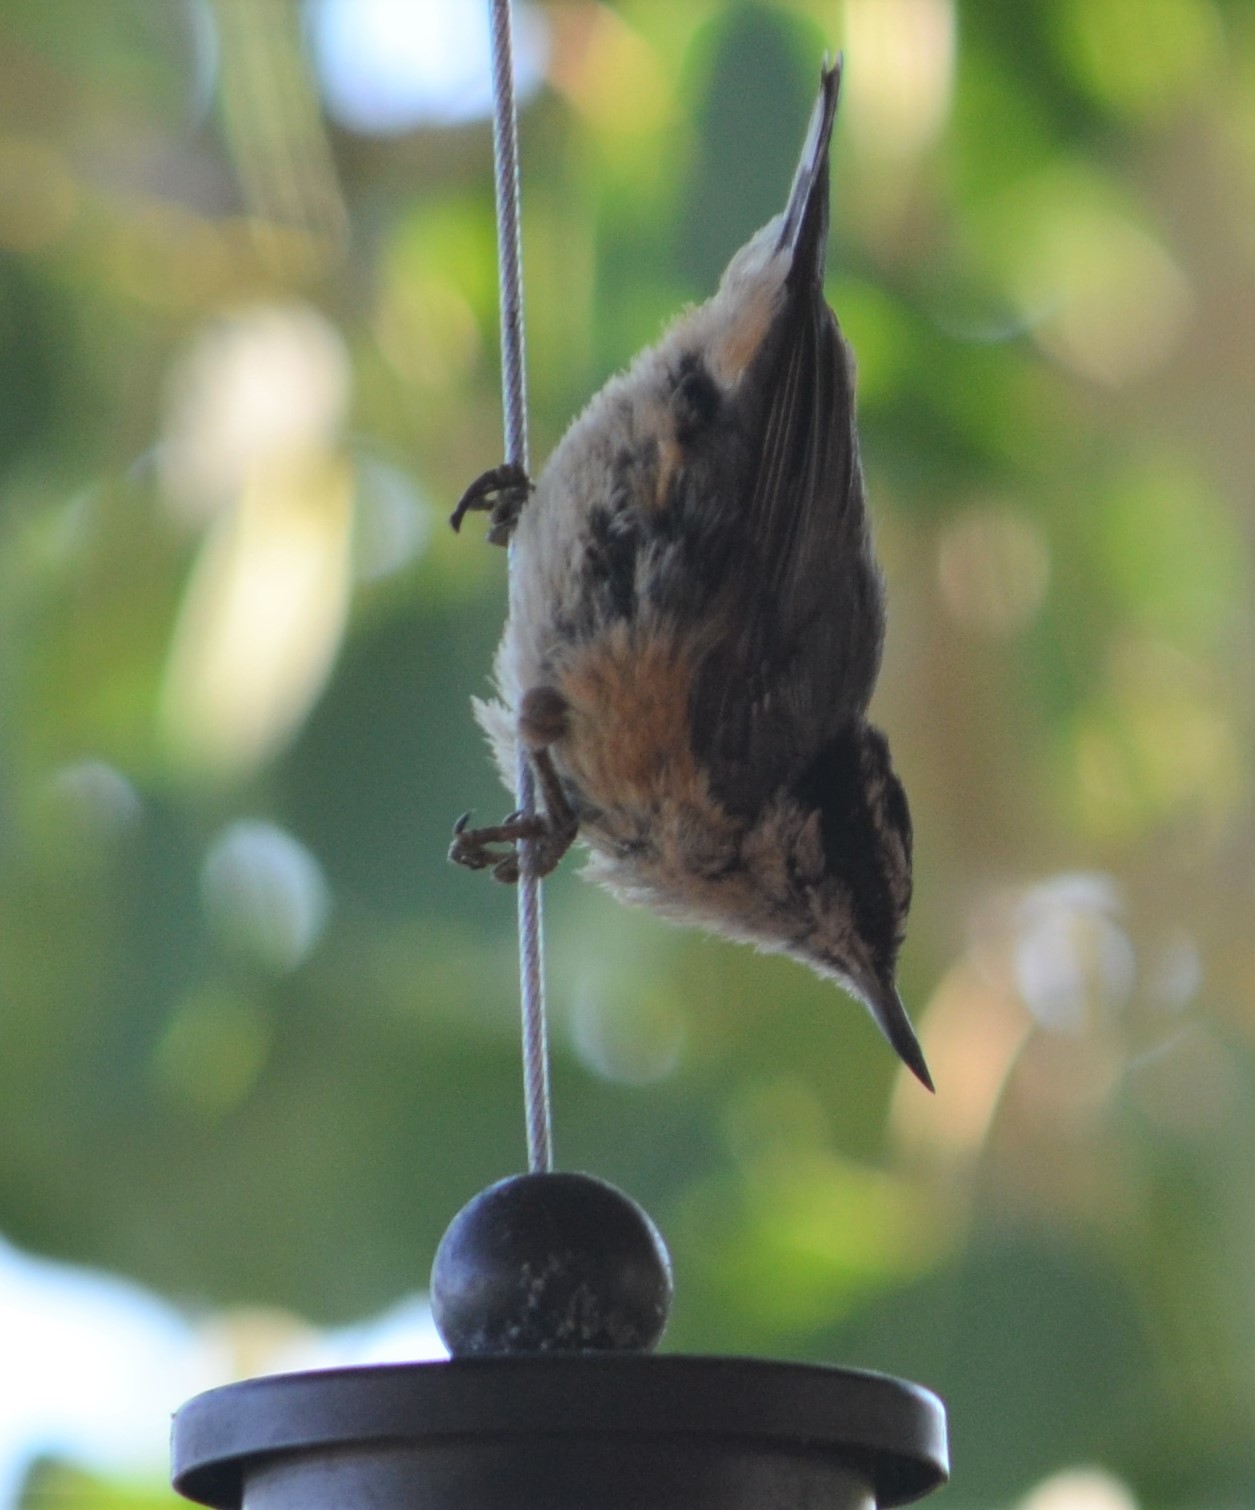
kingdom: Animalia
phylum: Chordata
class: Aves
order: Passeriformes
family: Sittidae
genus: Sitta
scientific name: Sitta canadensis
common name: Red-breasted nuthatch
